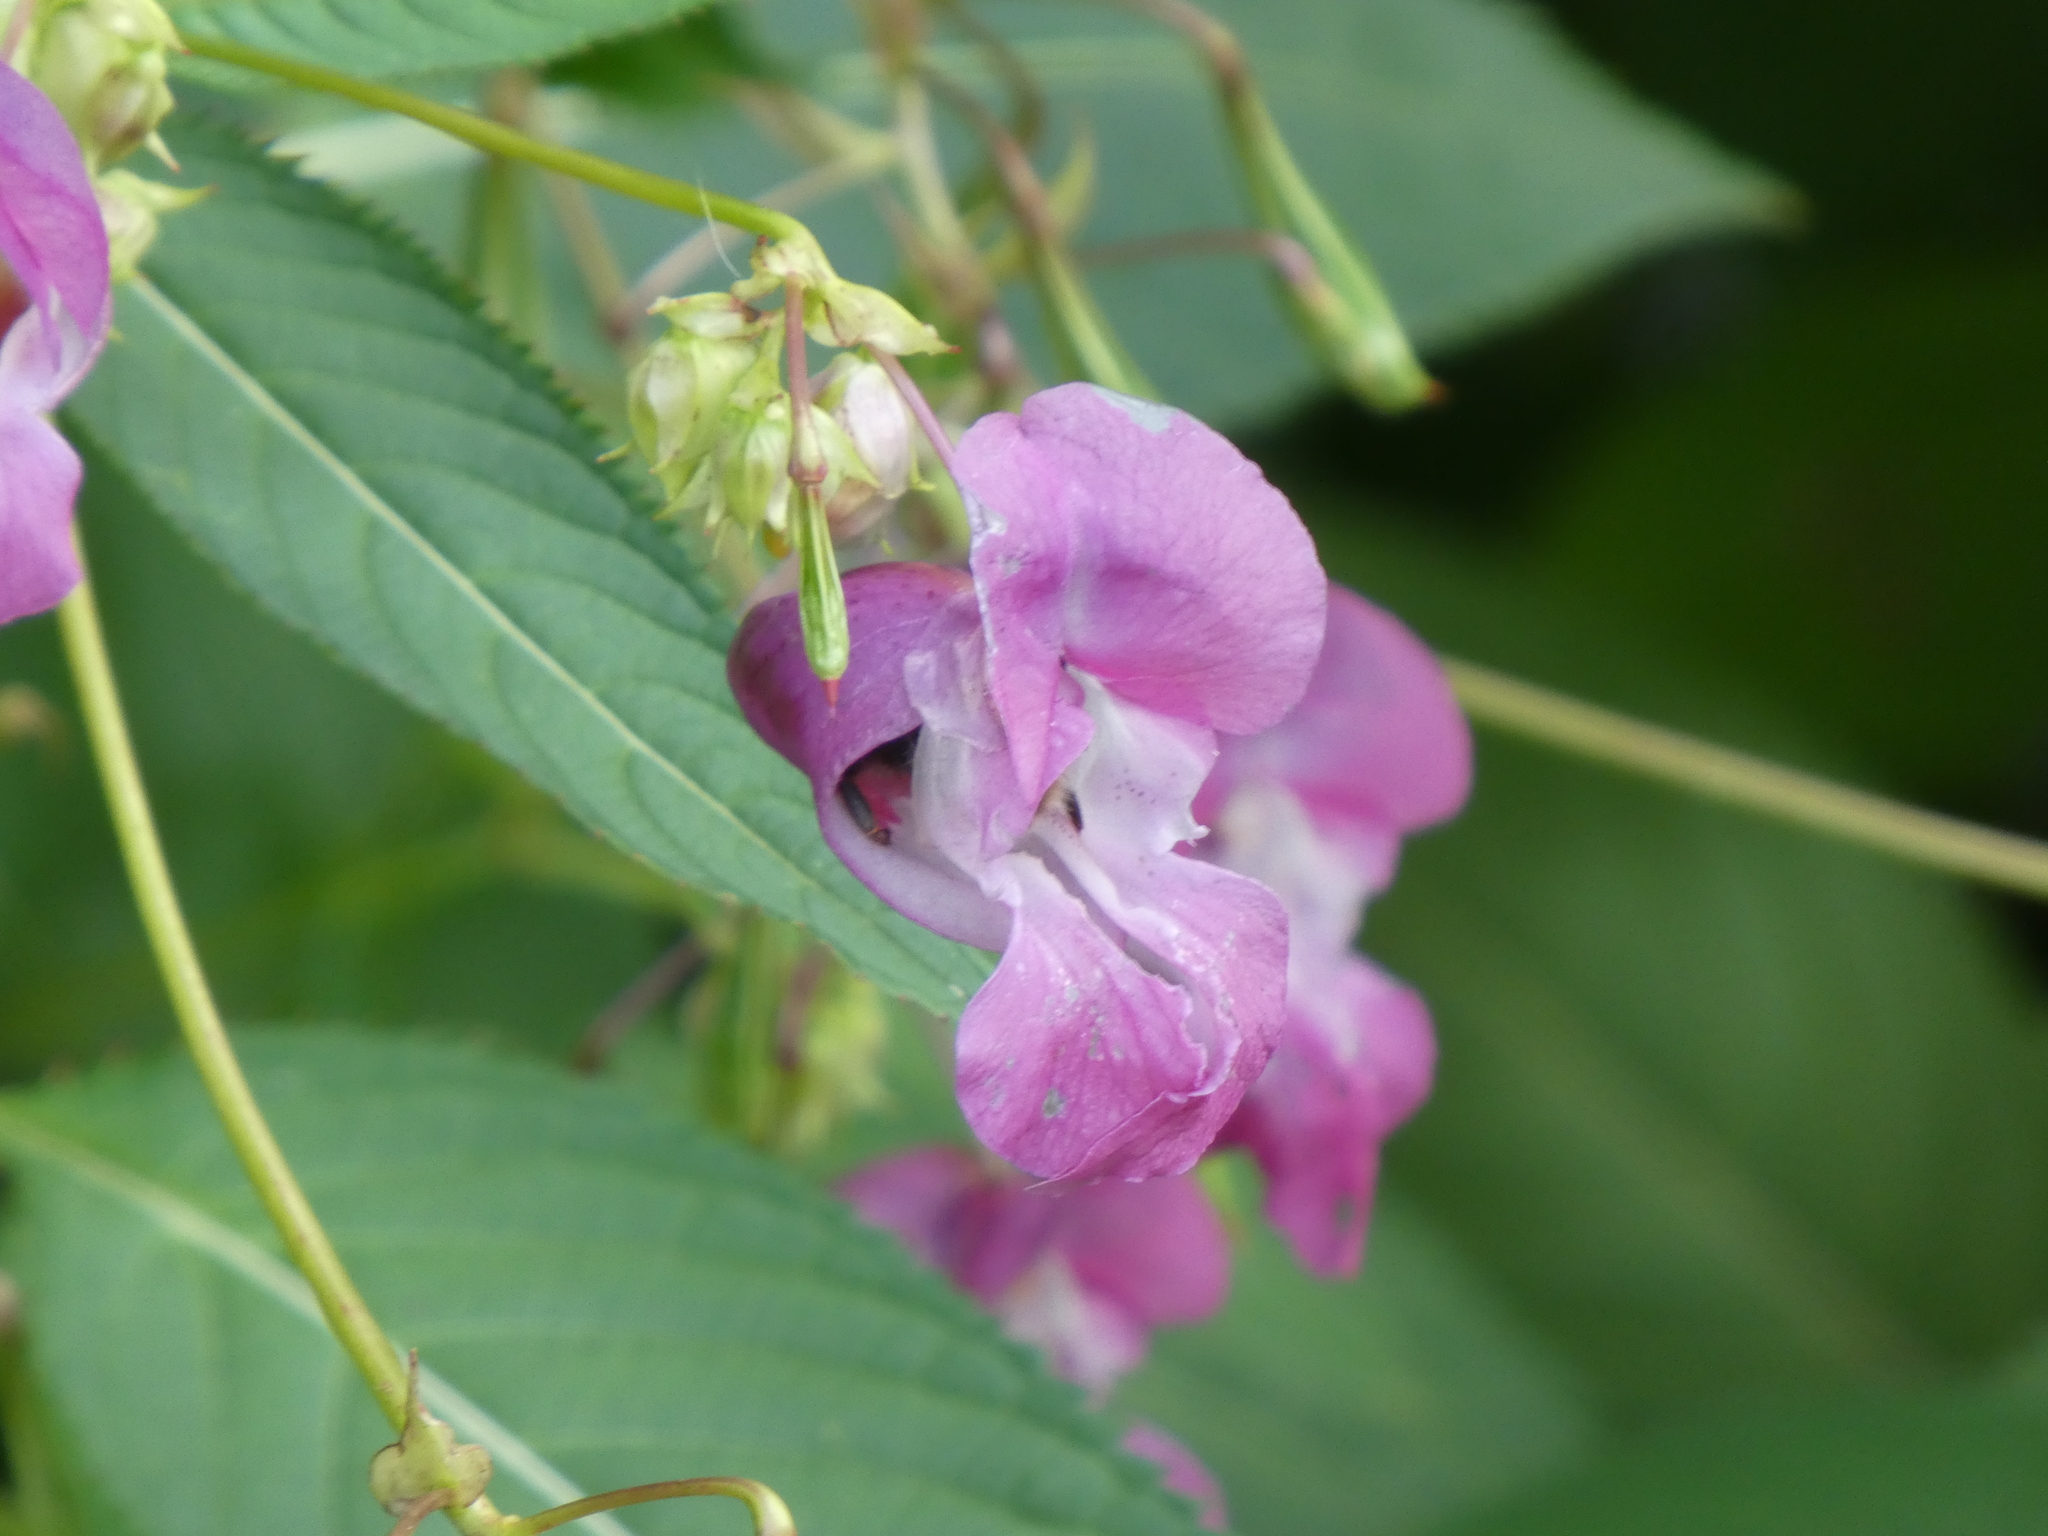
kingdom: Plantae
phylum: Tracheophyta
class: Magnoliopsida
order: Ericales
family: Balsaminaceae
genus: Impatiens
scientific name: Impatiens glandulifera
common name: Himalayan balsam
